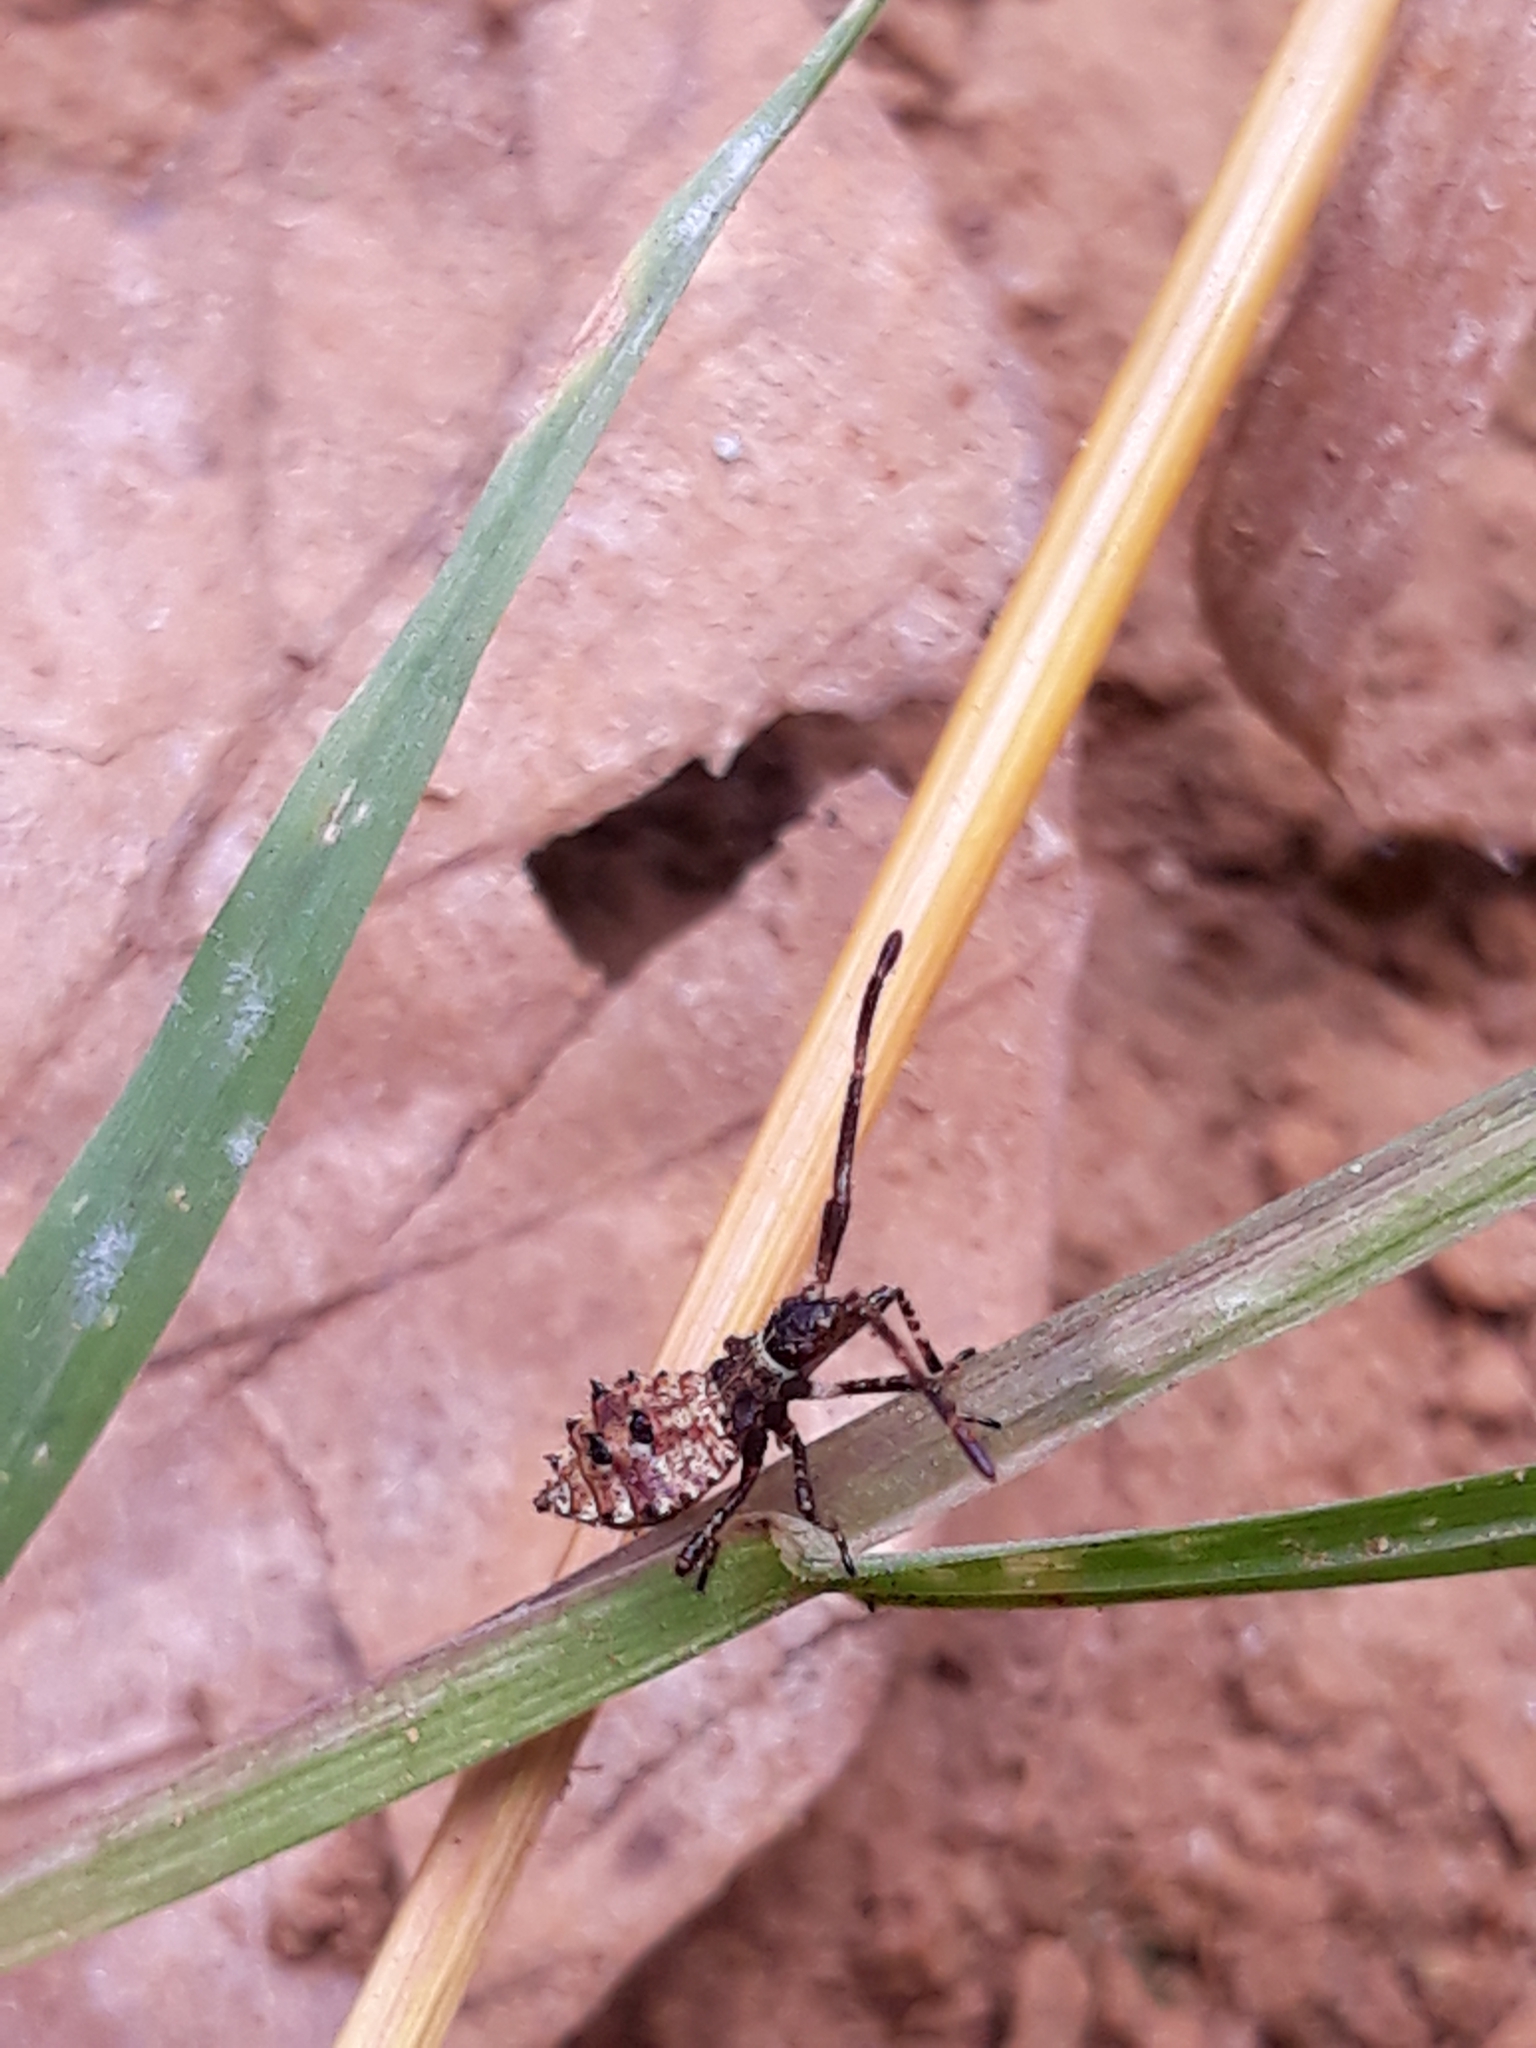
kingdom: Animalia
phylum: Arthropoda
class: Insecta
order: Hemiptera
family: Coreidae
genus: Coreus
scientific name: Coreus marginatus
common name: Dock bug
